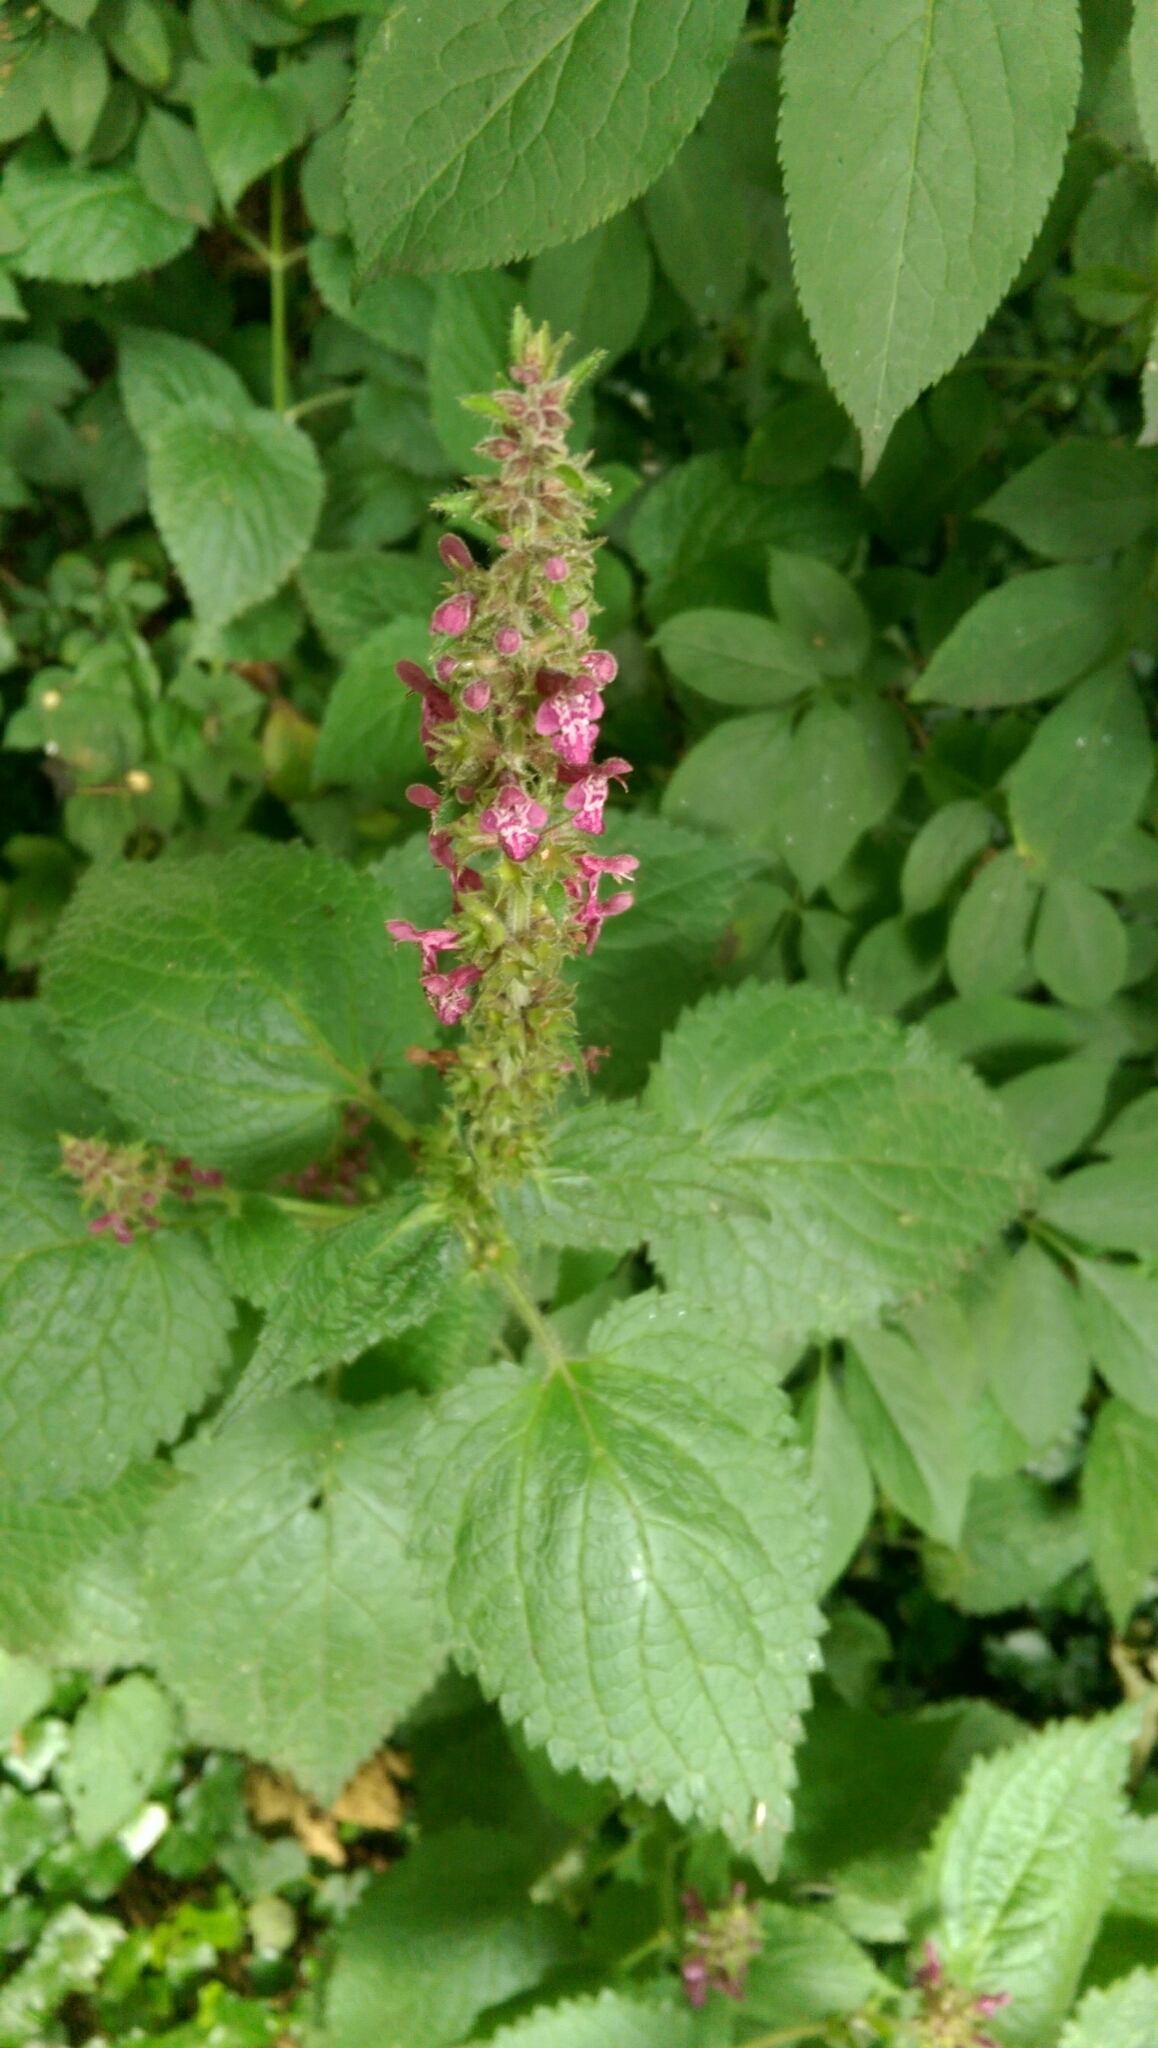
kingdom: Plantae
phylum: Tracheophyta
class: Magnoliopsida
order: Lamiales
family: Lamiaceae
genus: Stachys
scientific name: Stachys sylvatica
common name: Hedge woundwort
